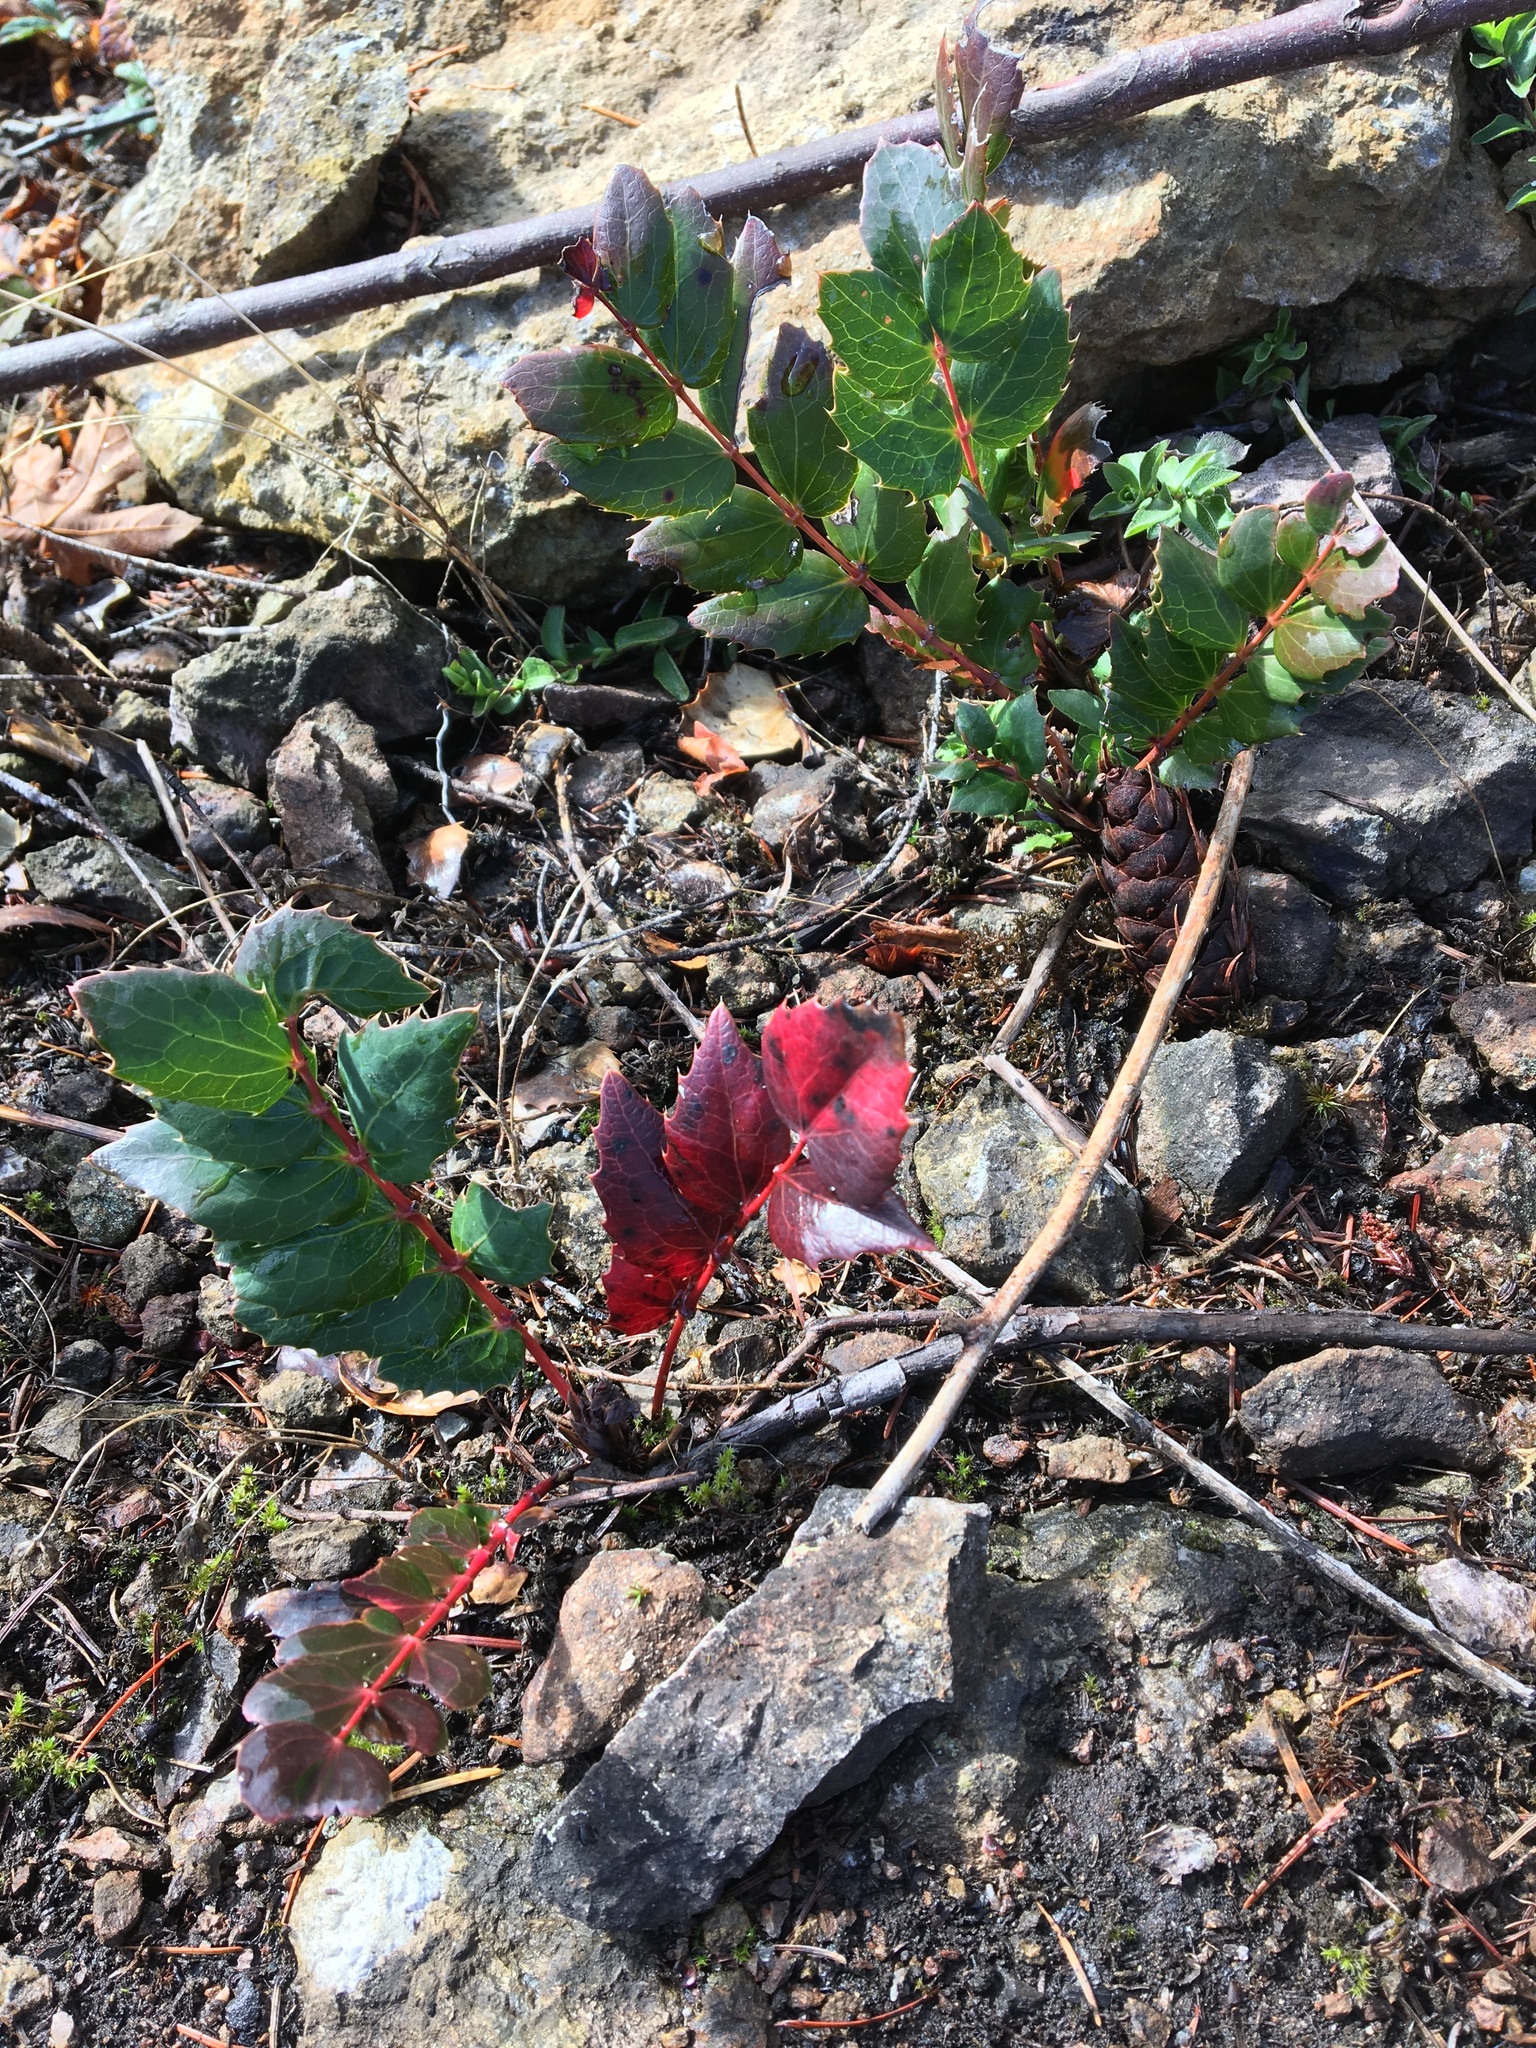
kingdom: Plantae
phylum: Tracheophyta
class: Magnoliopsida
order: Ranunculales
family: Berberidaceae
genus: Mahonia
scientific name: Mahonia nervosa
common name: Cascade oregon-grape
